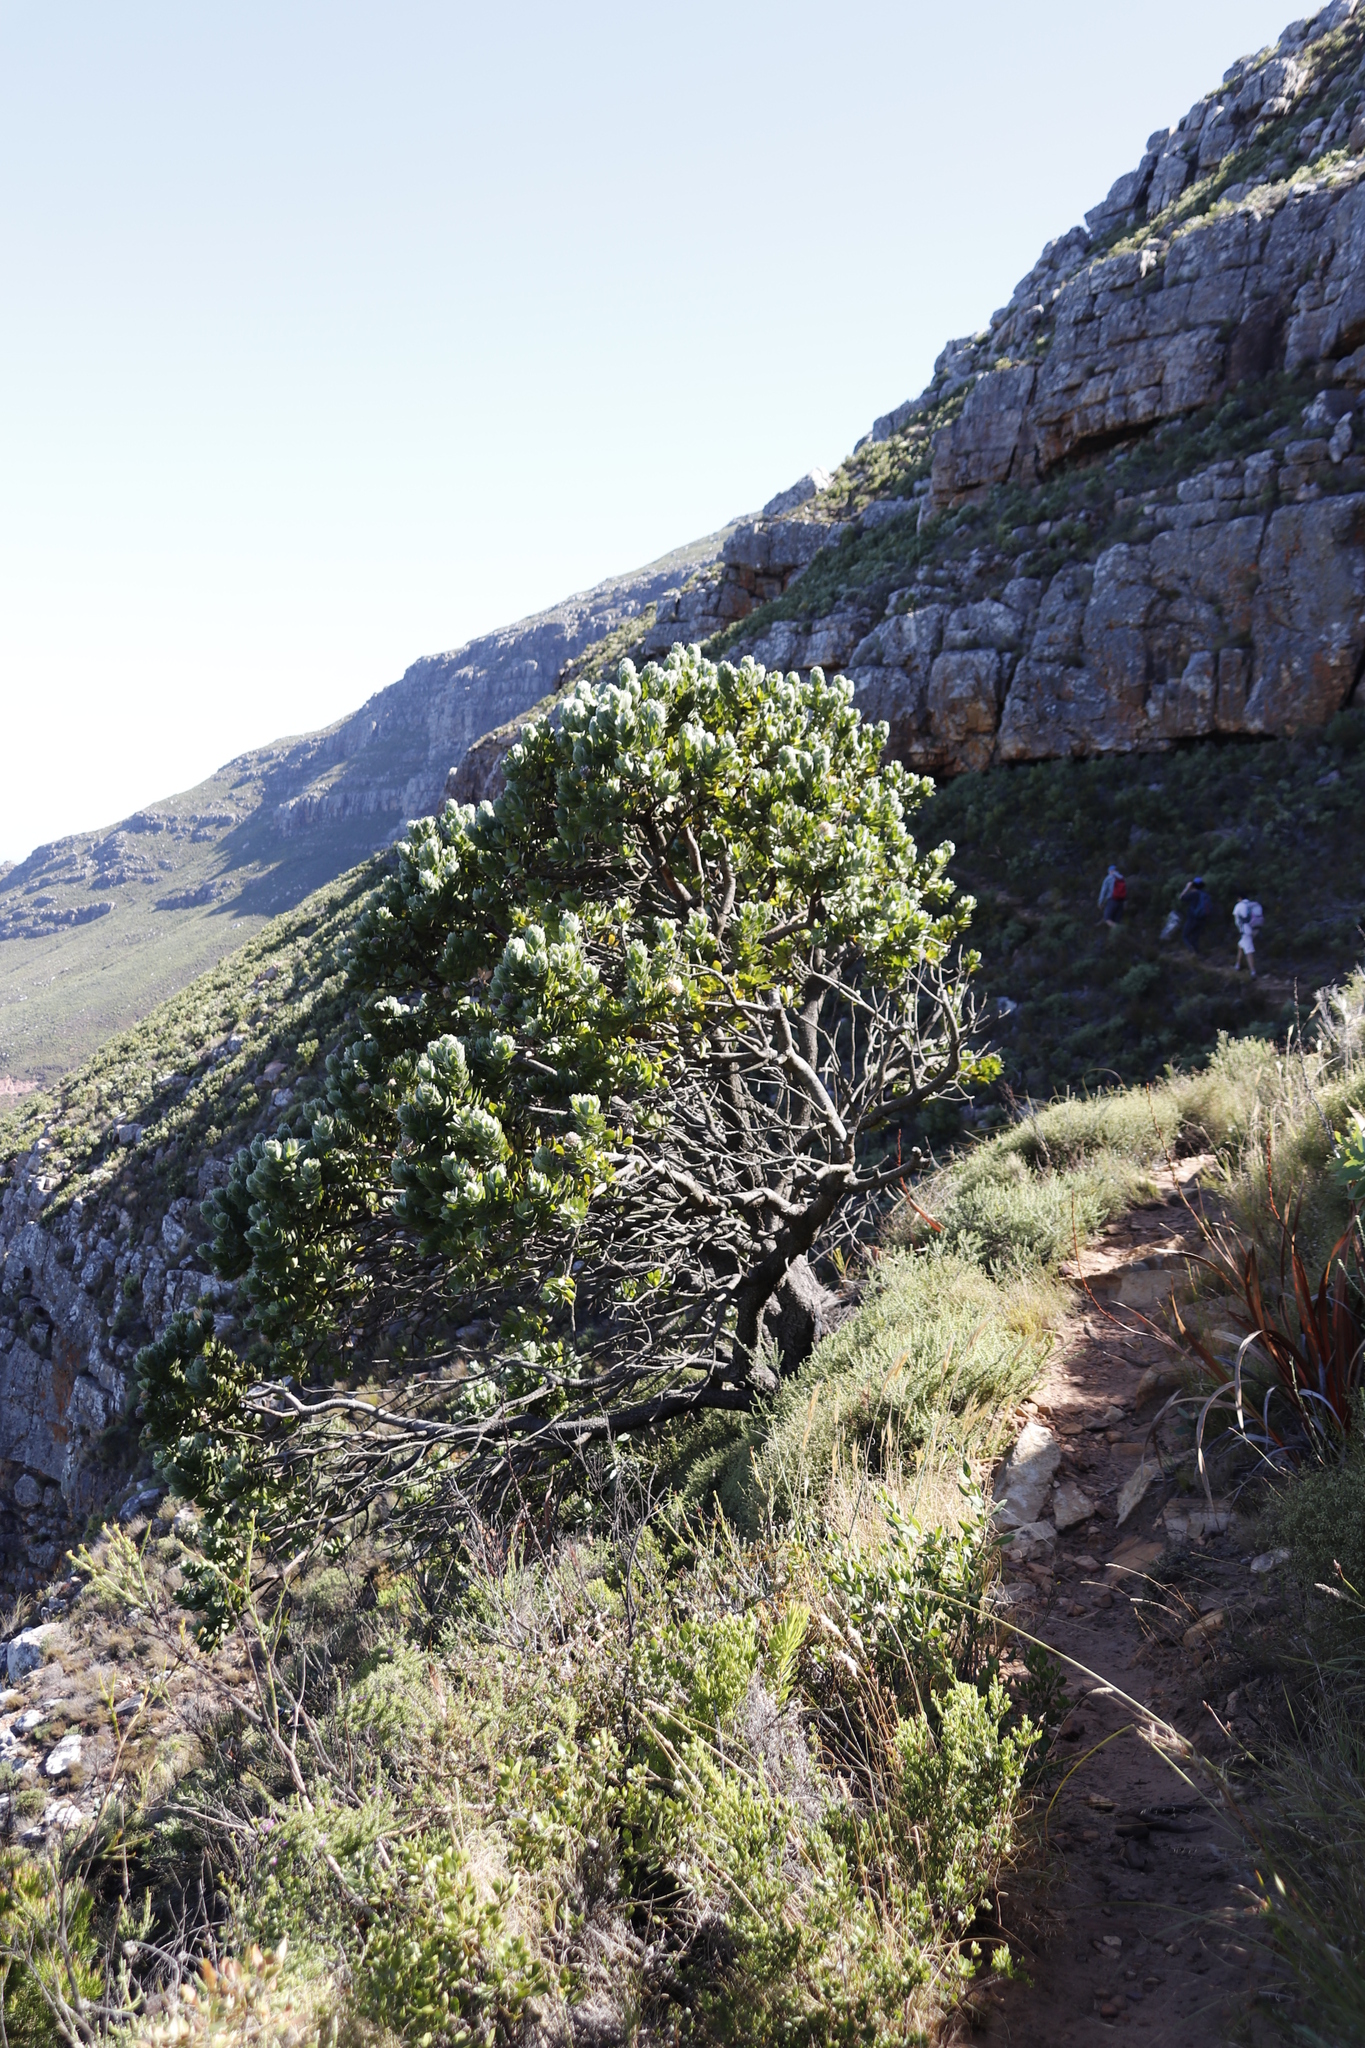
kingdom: Plantae
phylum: Tracheophyta
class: Magnoliopsida
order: Proteales
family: Proteaceae
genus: Leucospermum
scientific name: Leucospermum conocarpodendron
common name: Tree pincushion
